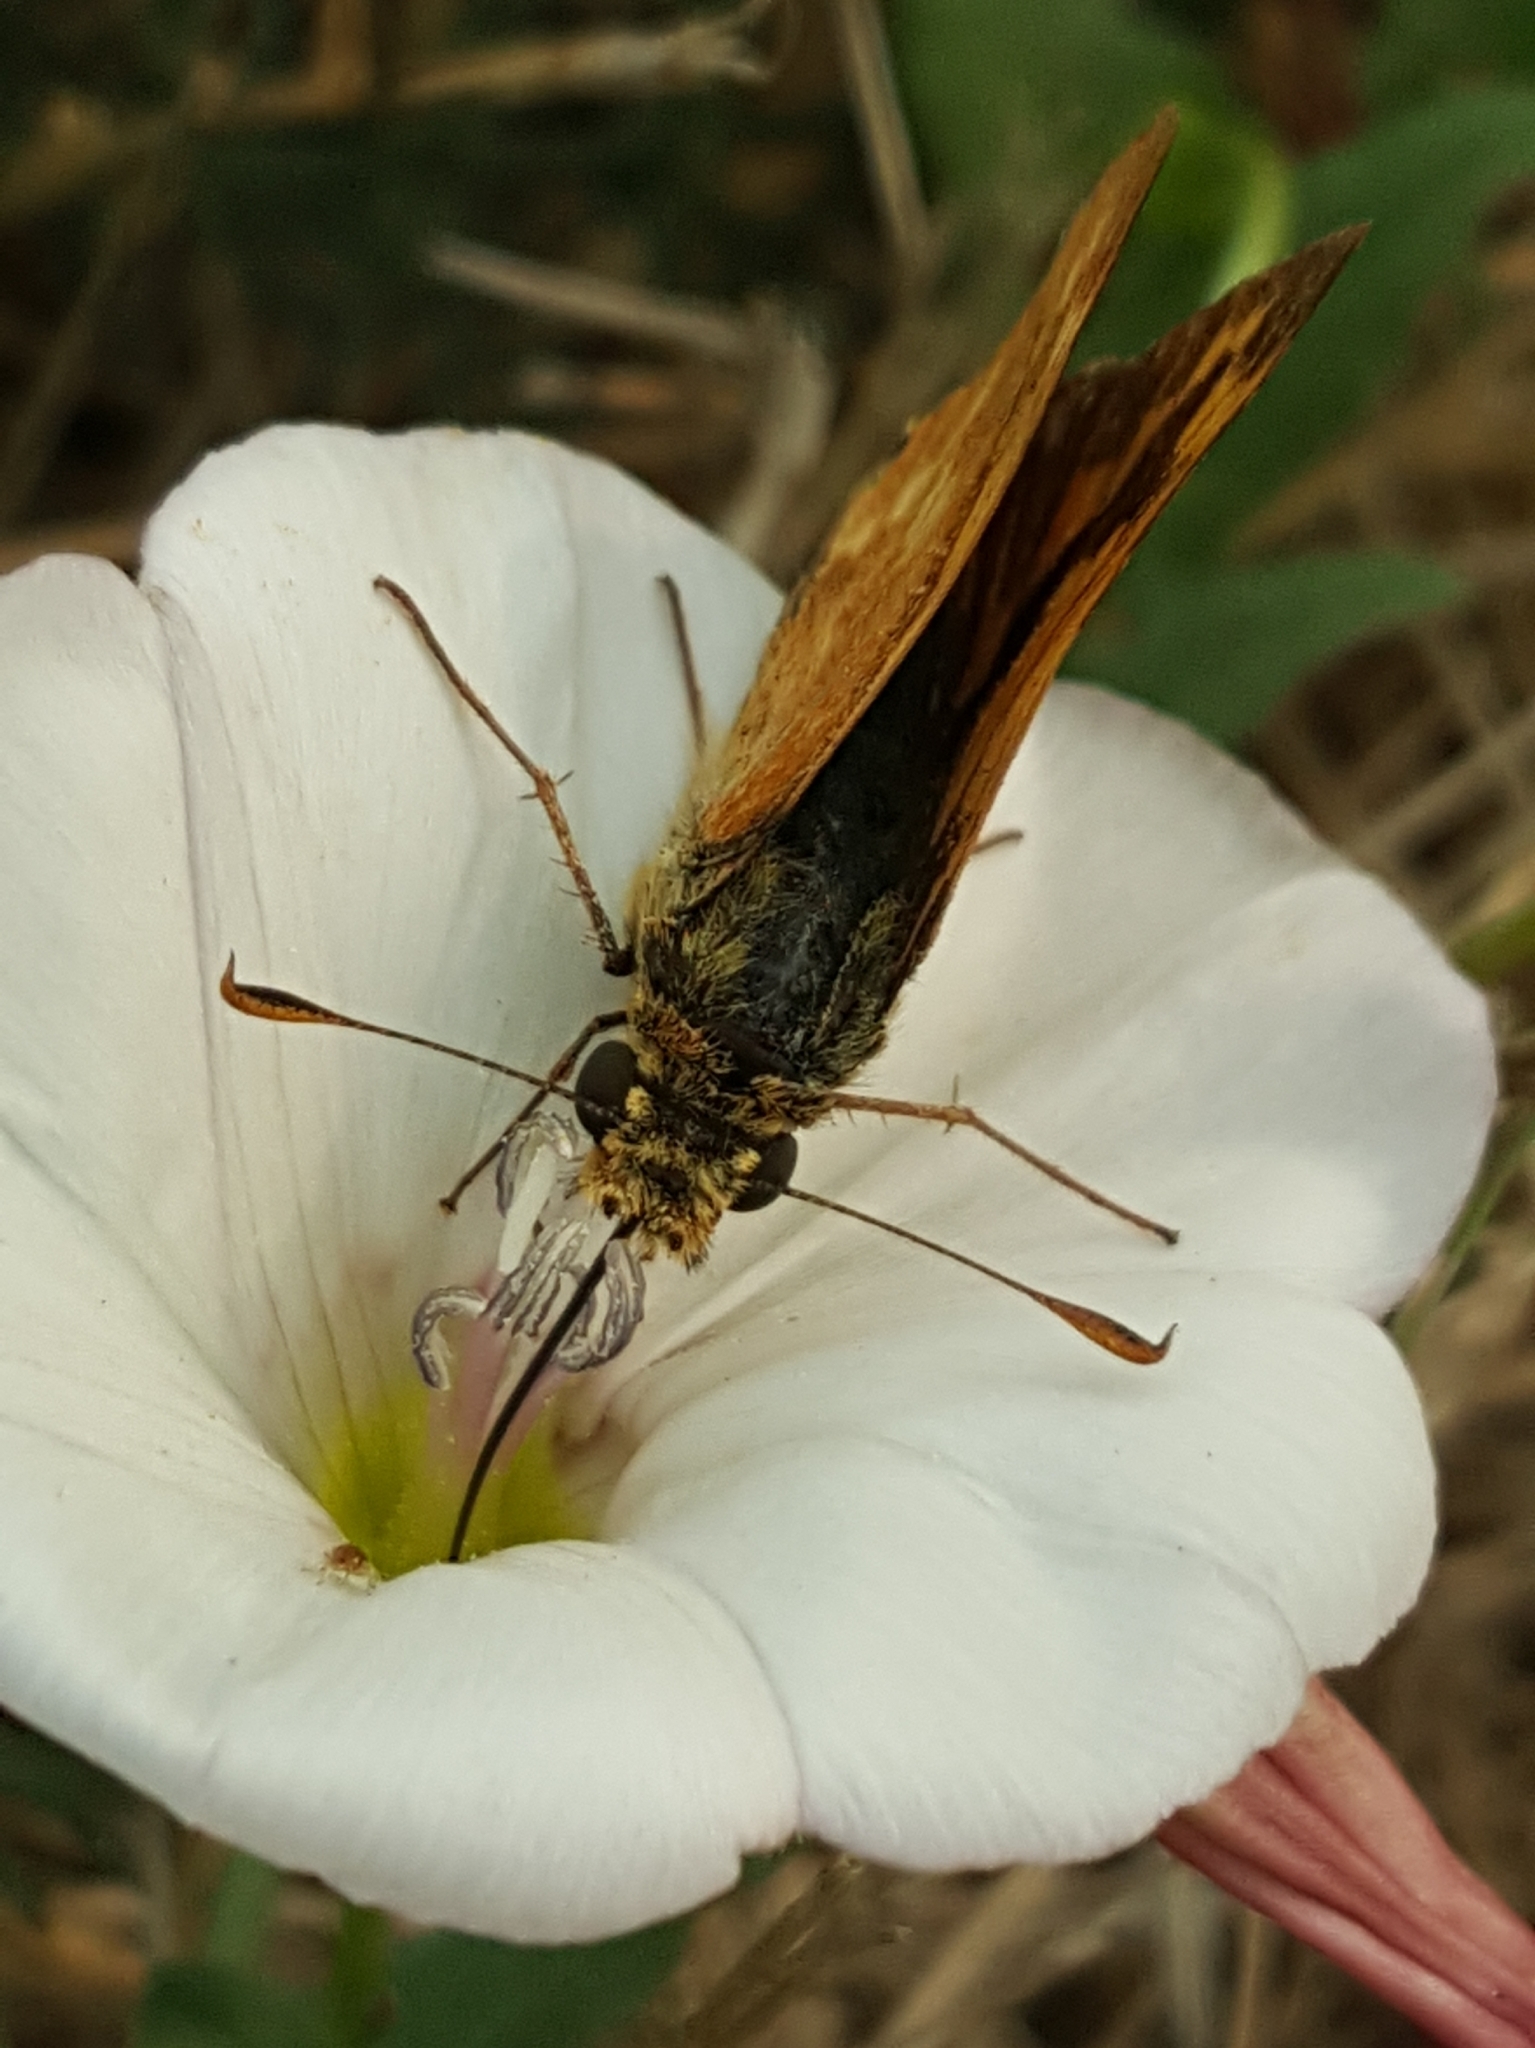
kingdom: Animalia
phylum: Arthropoda
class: Insecta
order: Lepidoptera
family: Hesperiidae
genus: Ochlodes
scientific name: Ochlodes sylvanoides
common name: Woodland skipper
